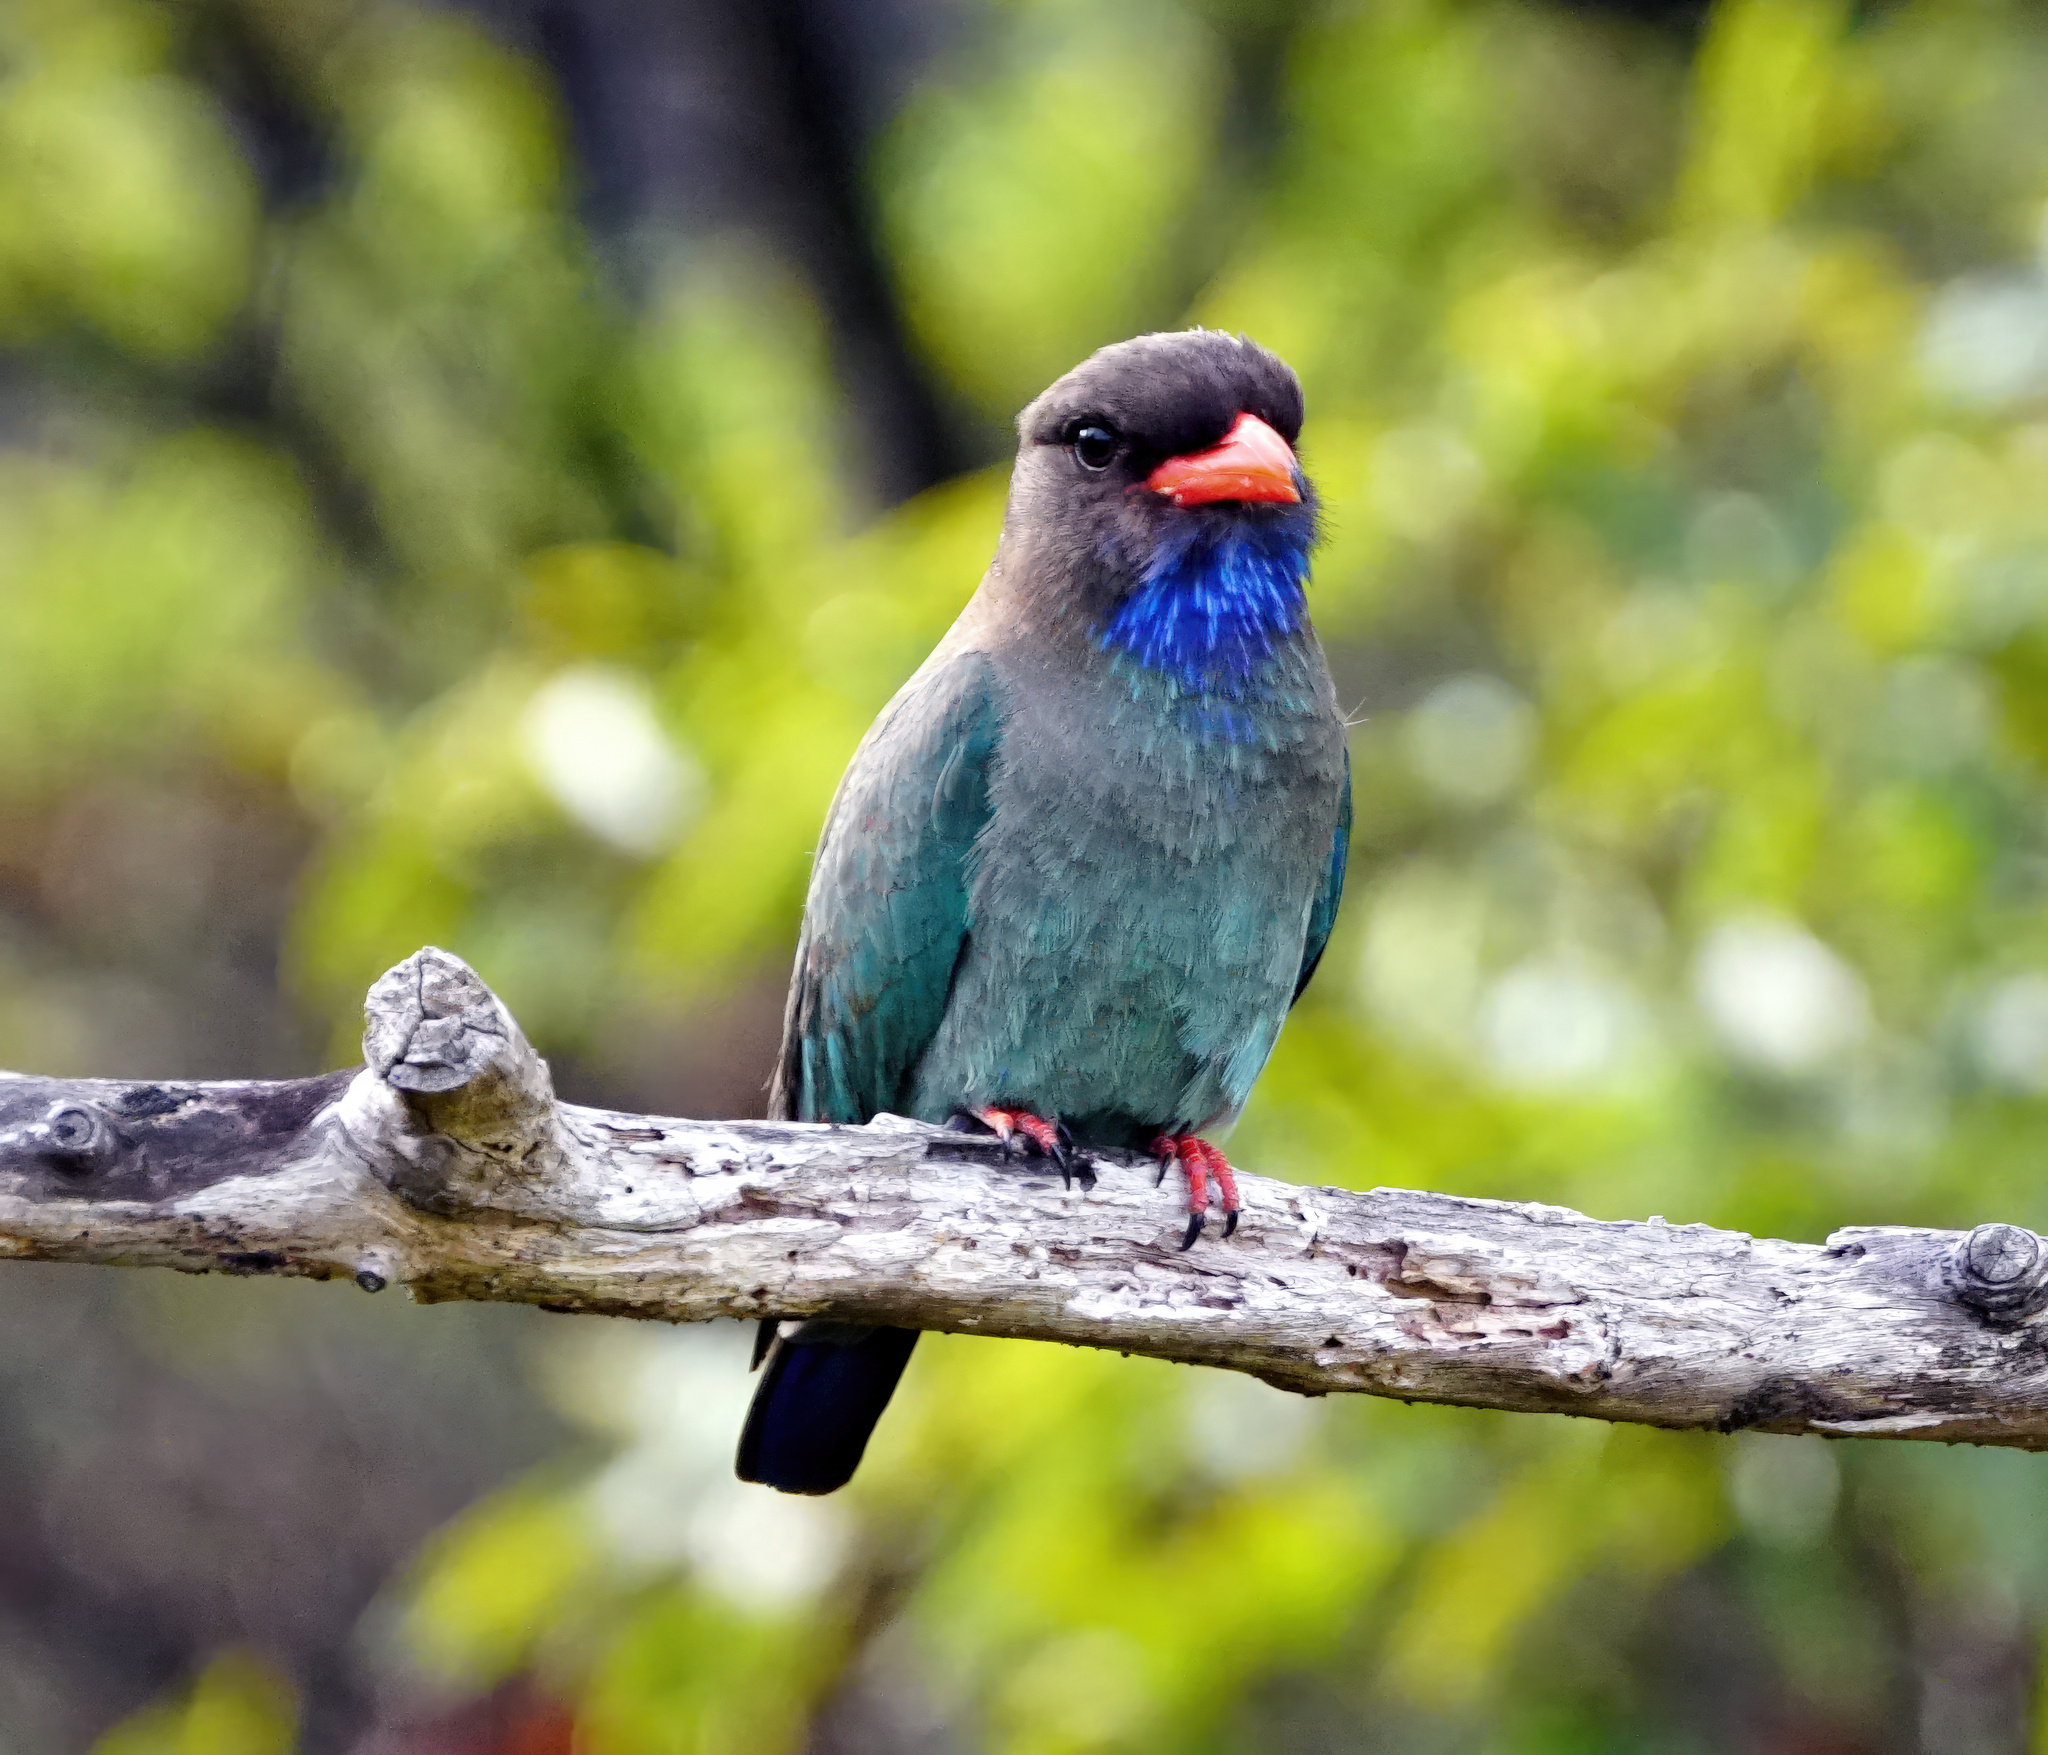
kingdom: Animalia
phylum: Chordata
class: Aves
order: Coraciiformes
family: Coraciidae
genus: Eurystomus
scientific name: Eurystomus orientalis
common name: Oriental dollarbird
